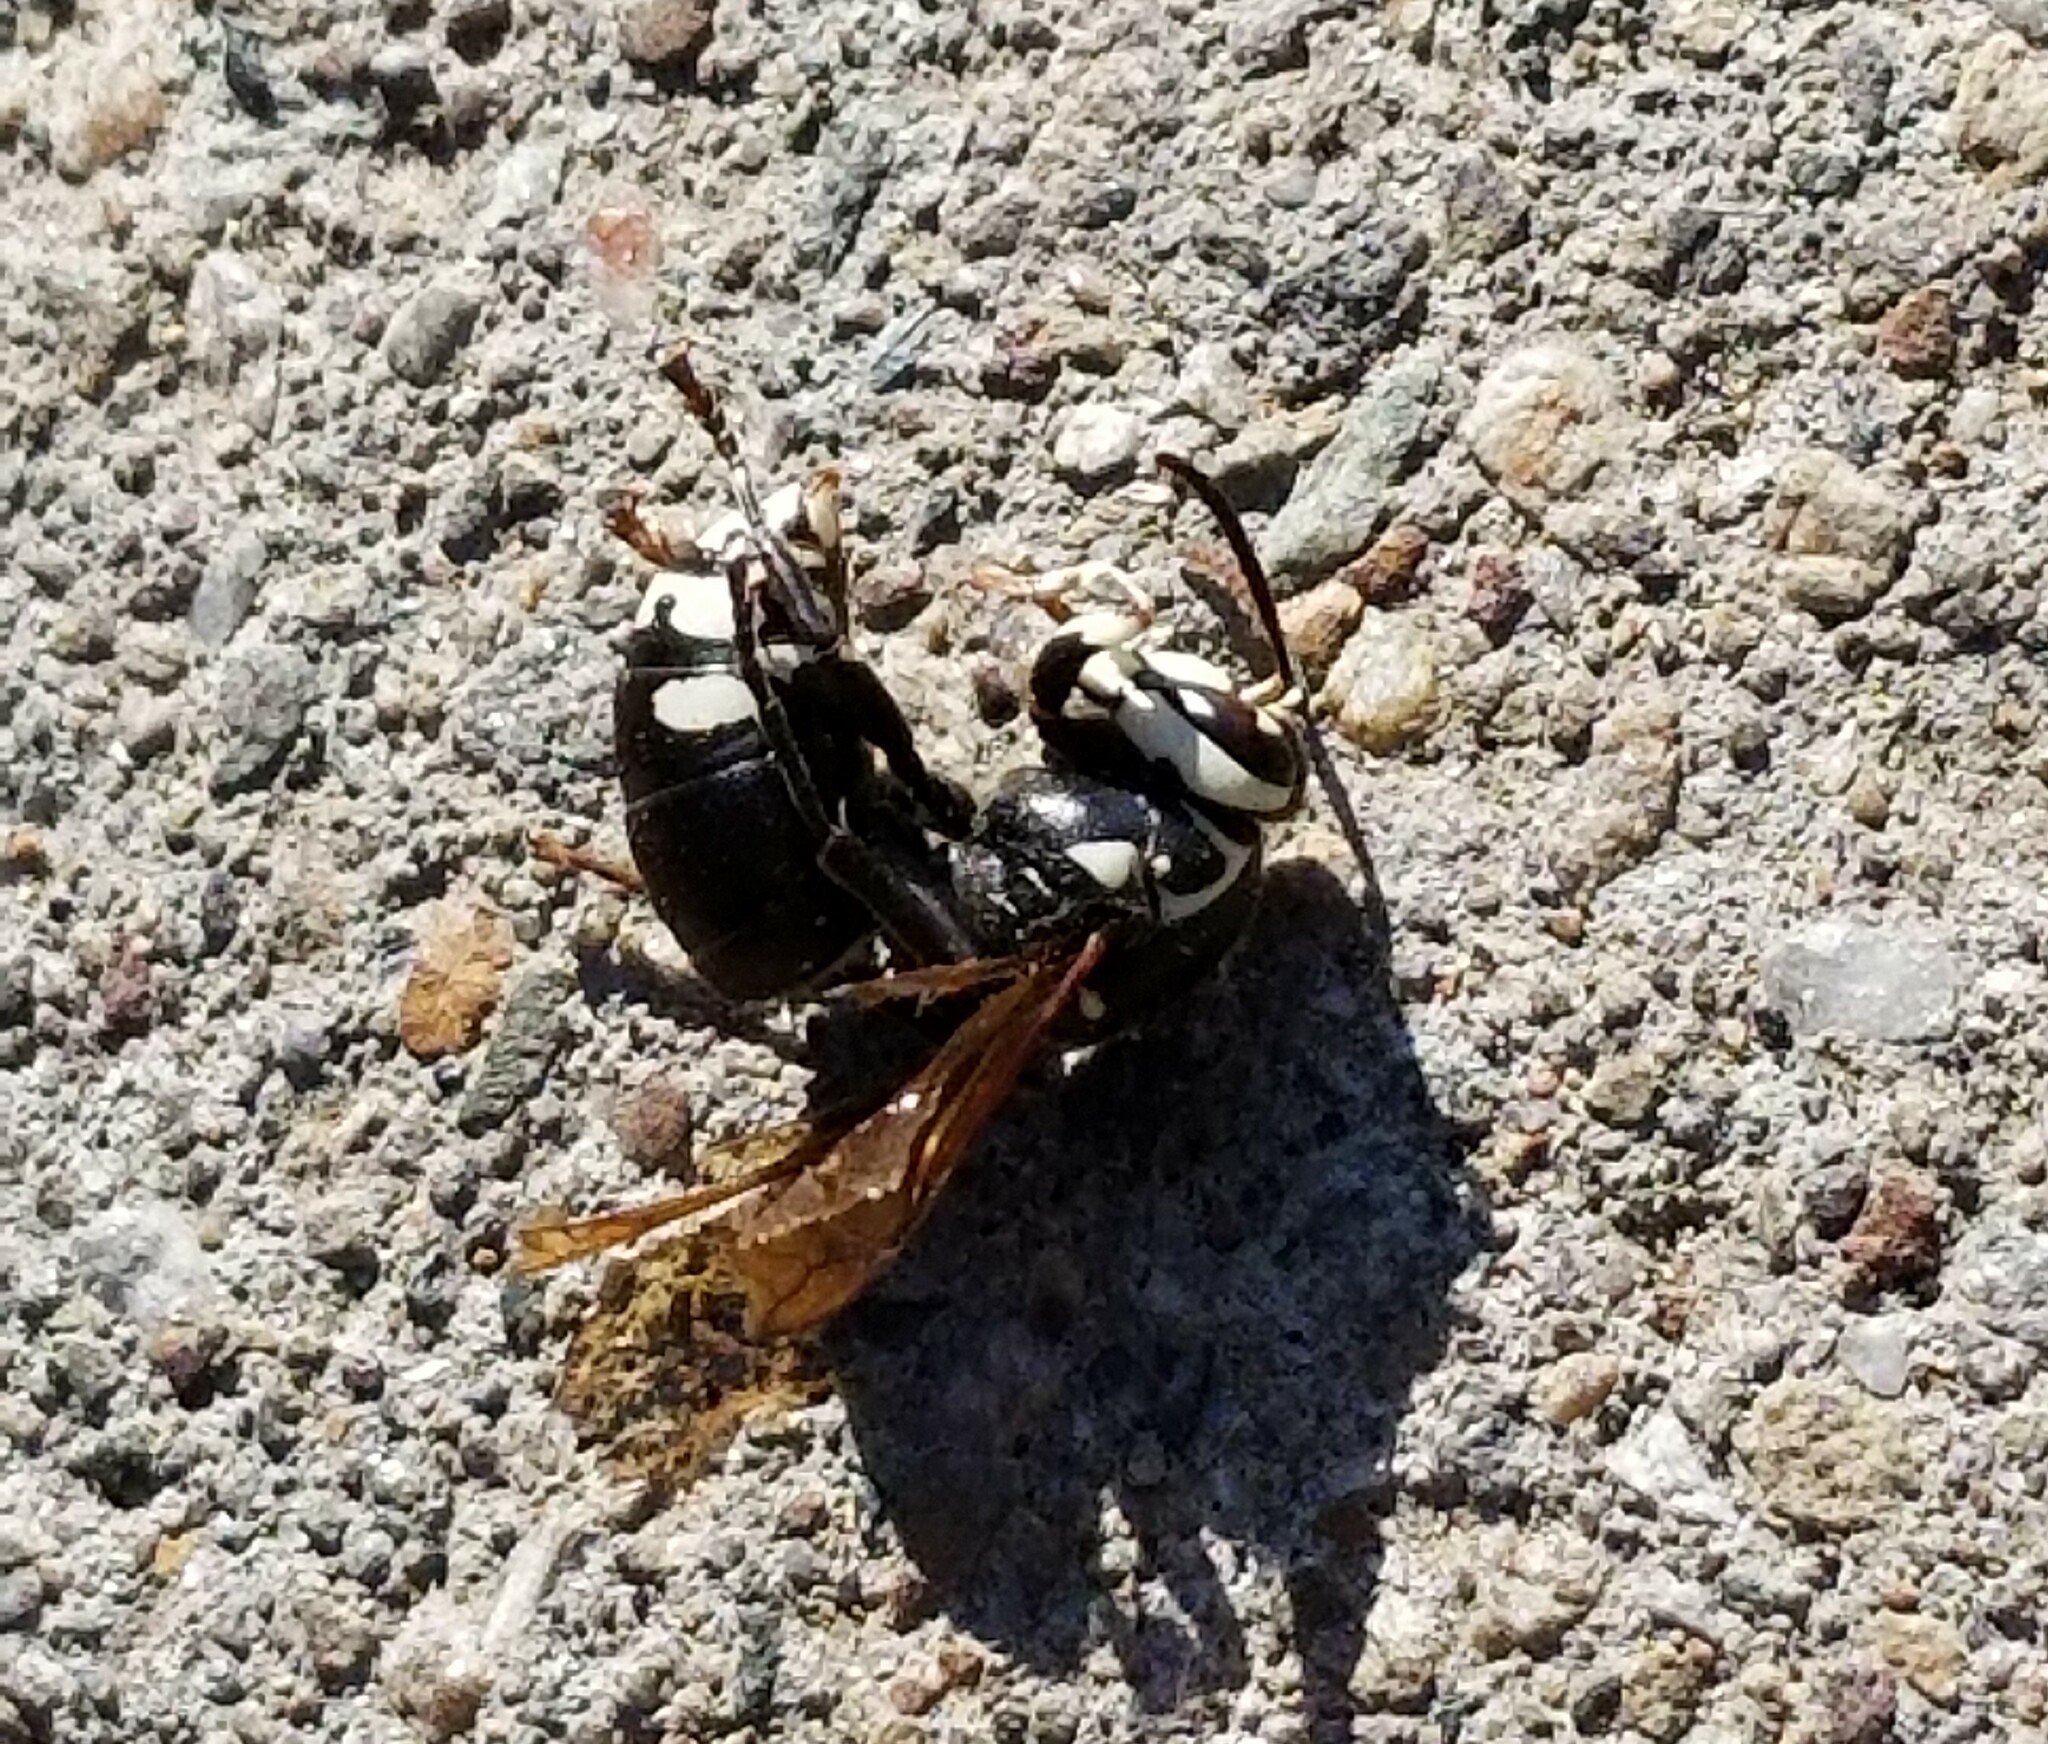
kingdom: Animalia
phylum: Arthropoda
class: Insecta
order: Hymenoptera
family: Vespidae
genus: Dolichovespula
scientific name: Dolichovespula maculata
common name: Bald-faced hornet
